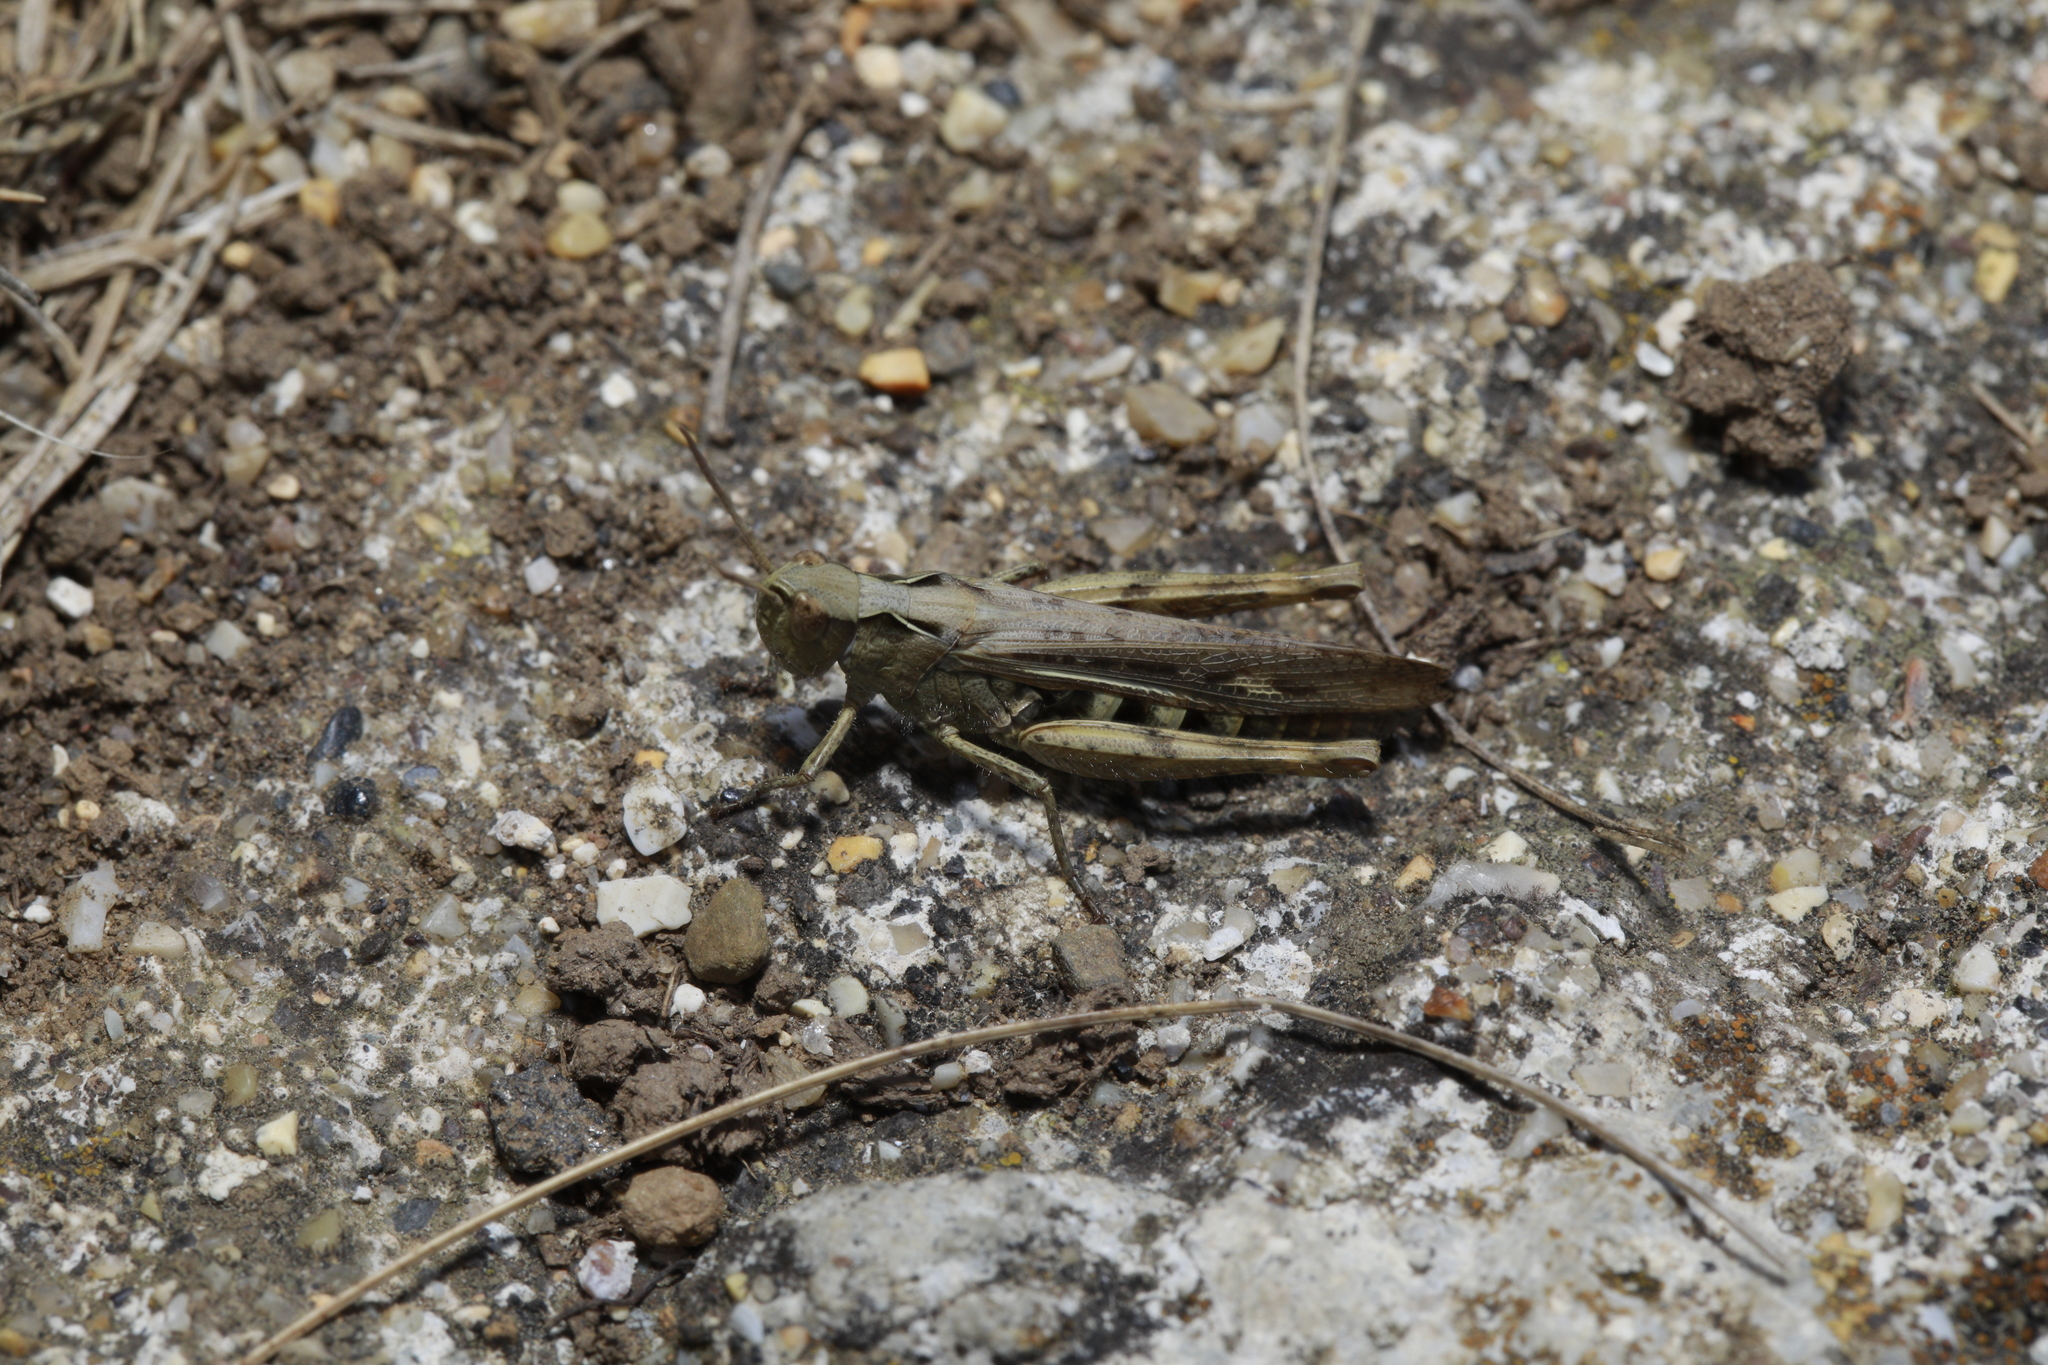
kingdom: Animalia
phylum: Arthropoda
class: Insecta
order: Orthoptera
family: Acrididae
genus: Chorthippus
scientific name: Chorthippus brunneus
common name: Field grasshopper
